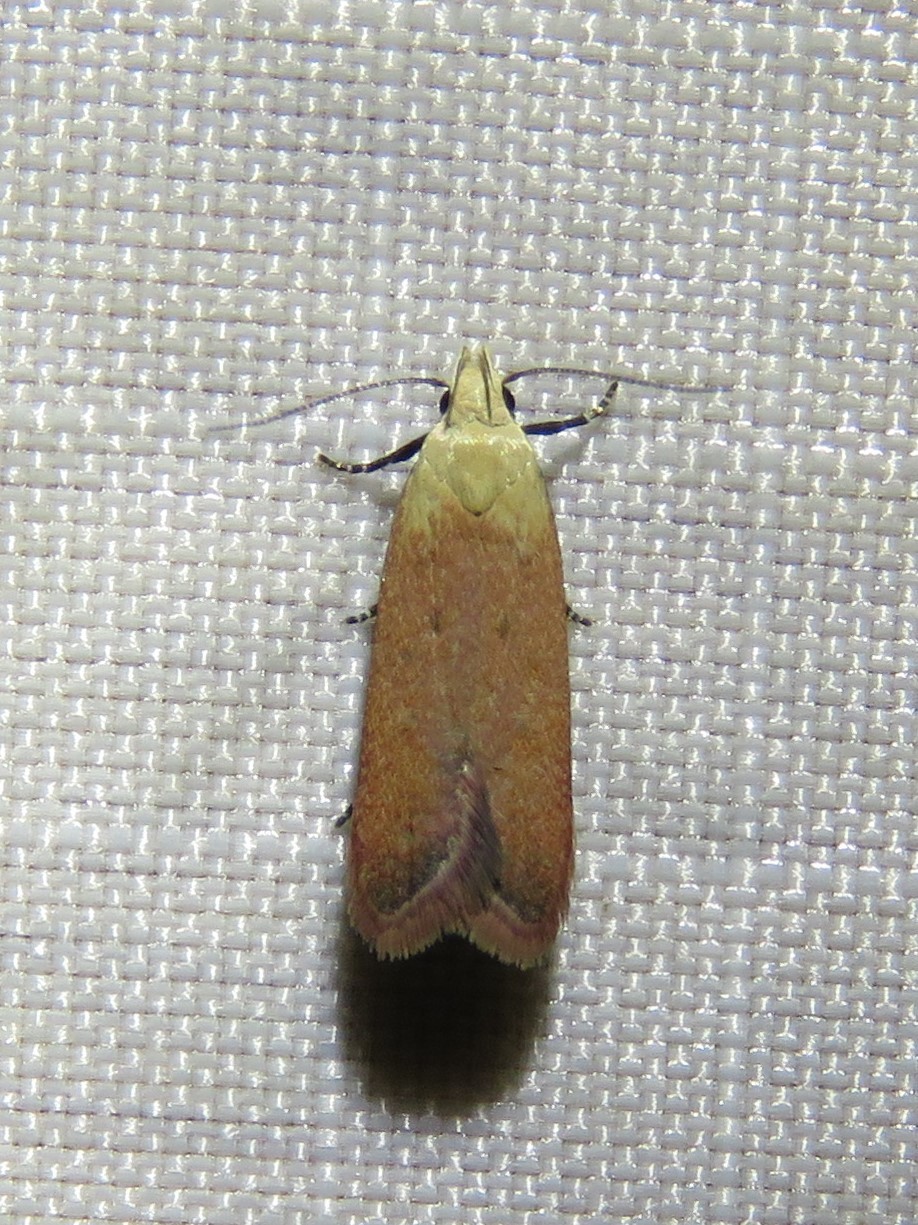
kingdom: Animalia
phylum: Arthropoda
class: Insecta
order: Lepidoptera
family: Gelechiidae
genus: Anacampsis
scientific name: Anacampsis fullonella
